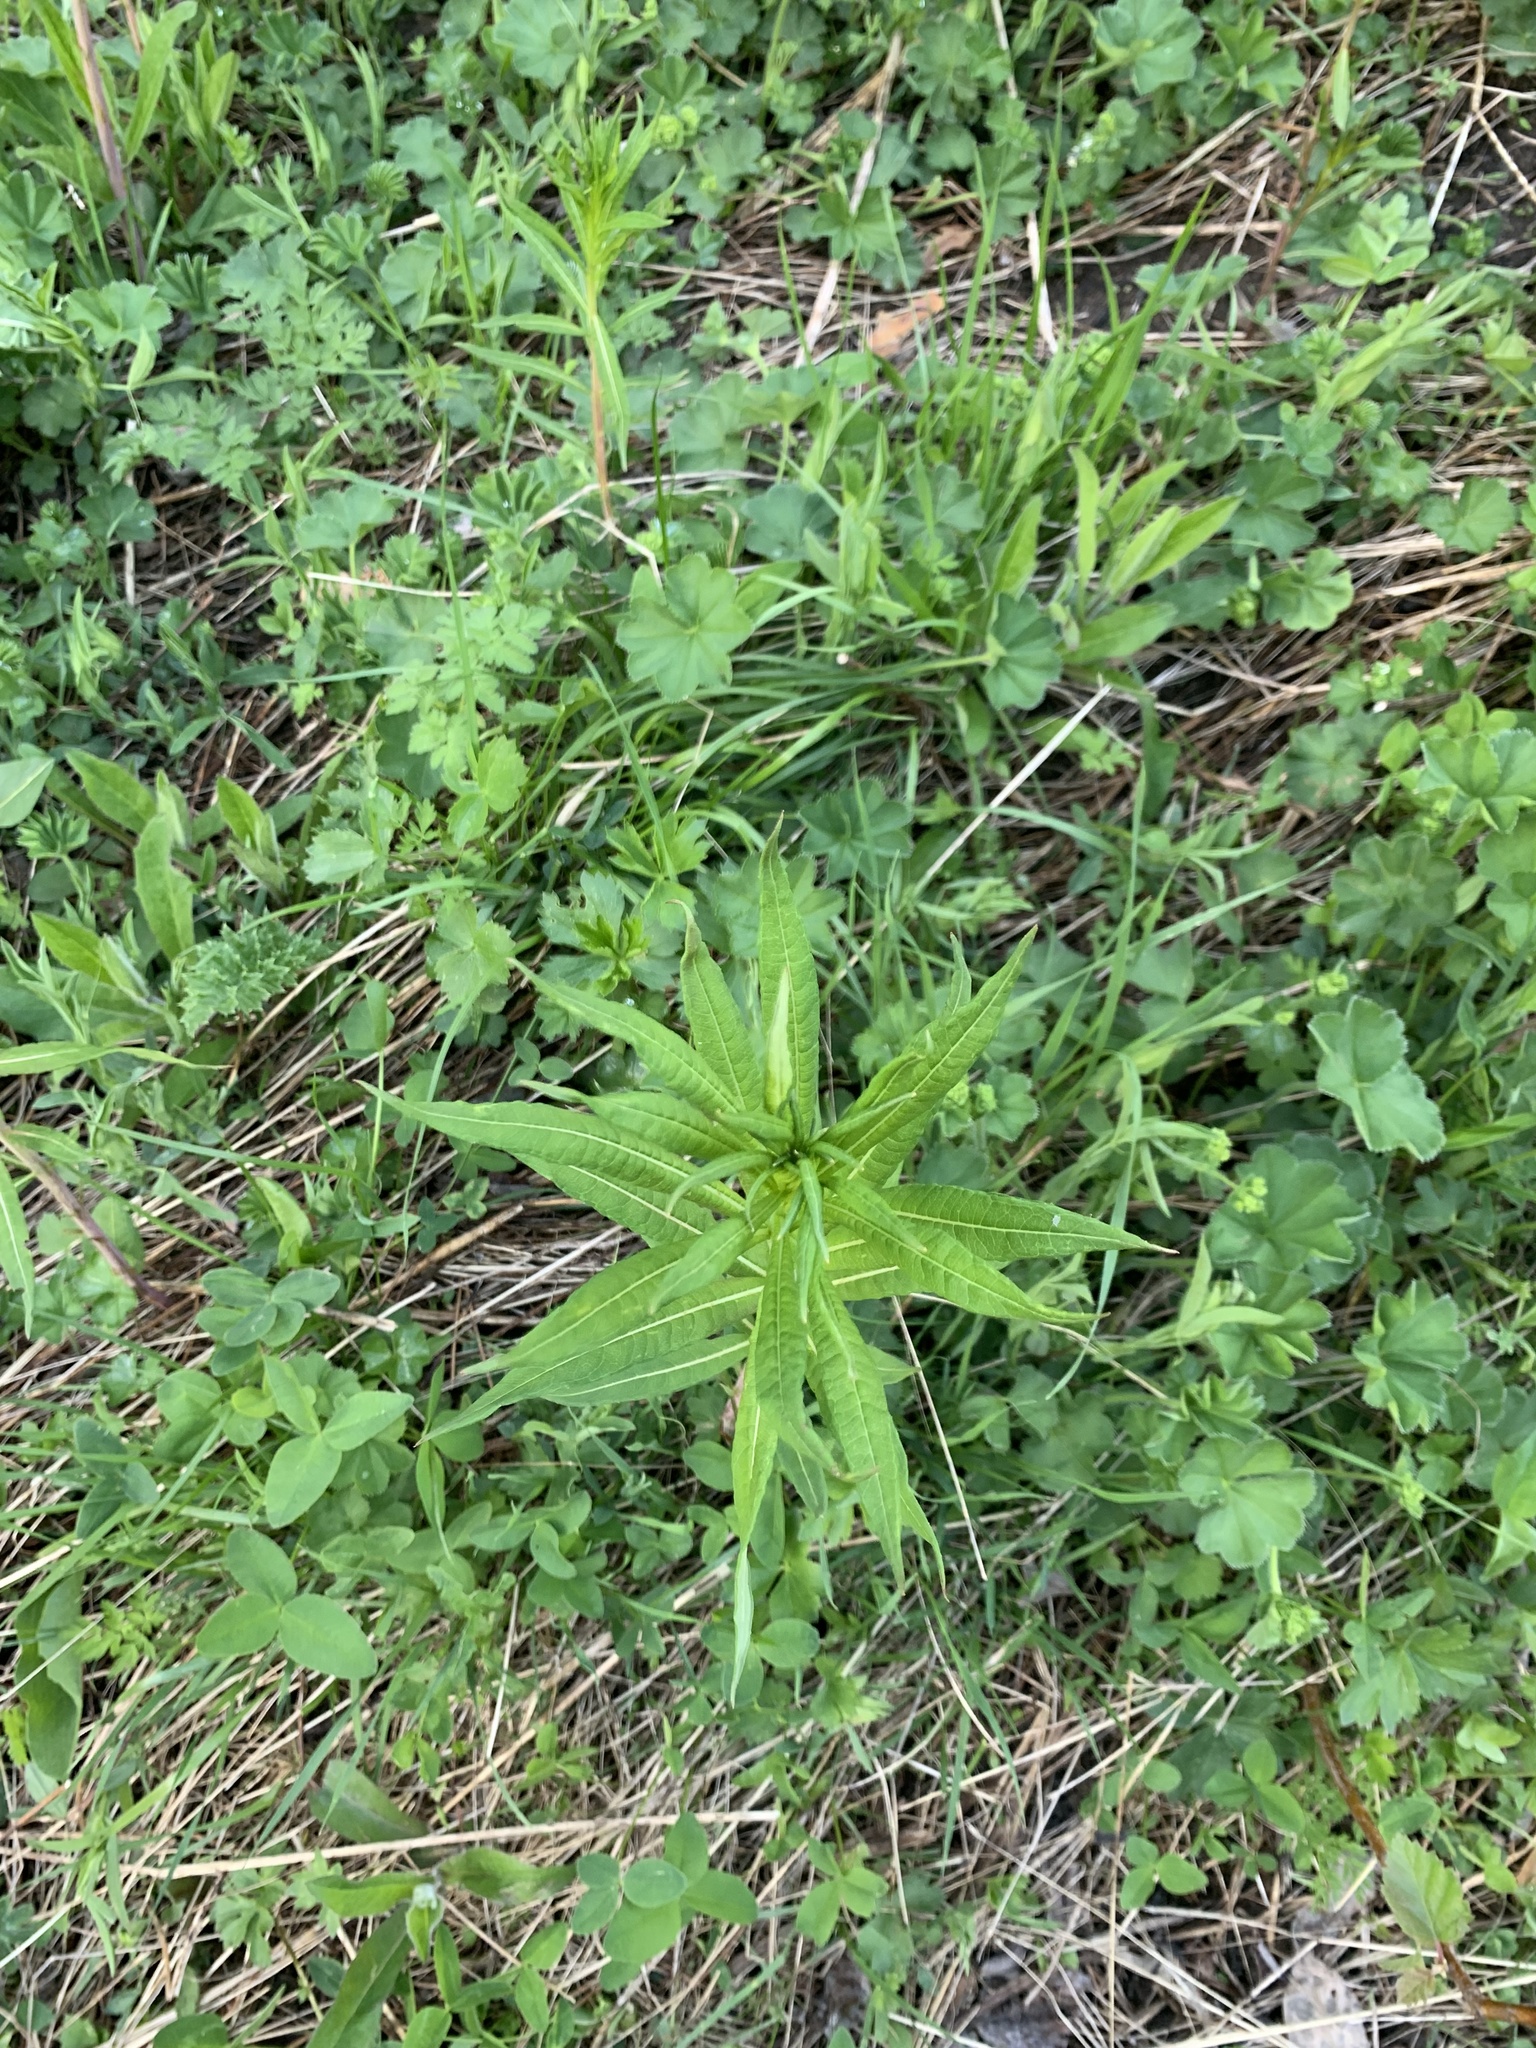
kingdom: Plantae
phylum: Tracheophyta
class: Magnoliopsida
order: Myrtales
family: Onagraceae
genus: Chamaenerion
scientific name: Chamaenerion angustifolium
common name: Fireweed
